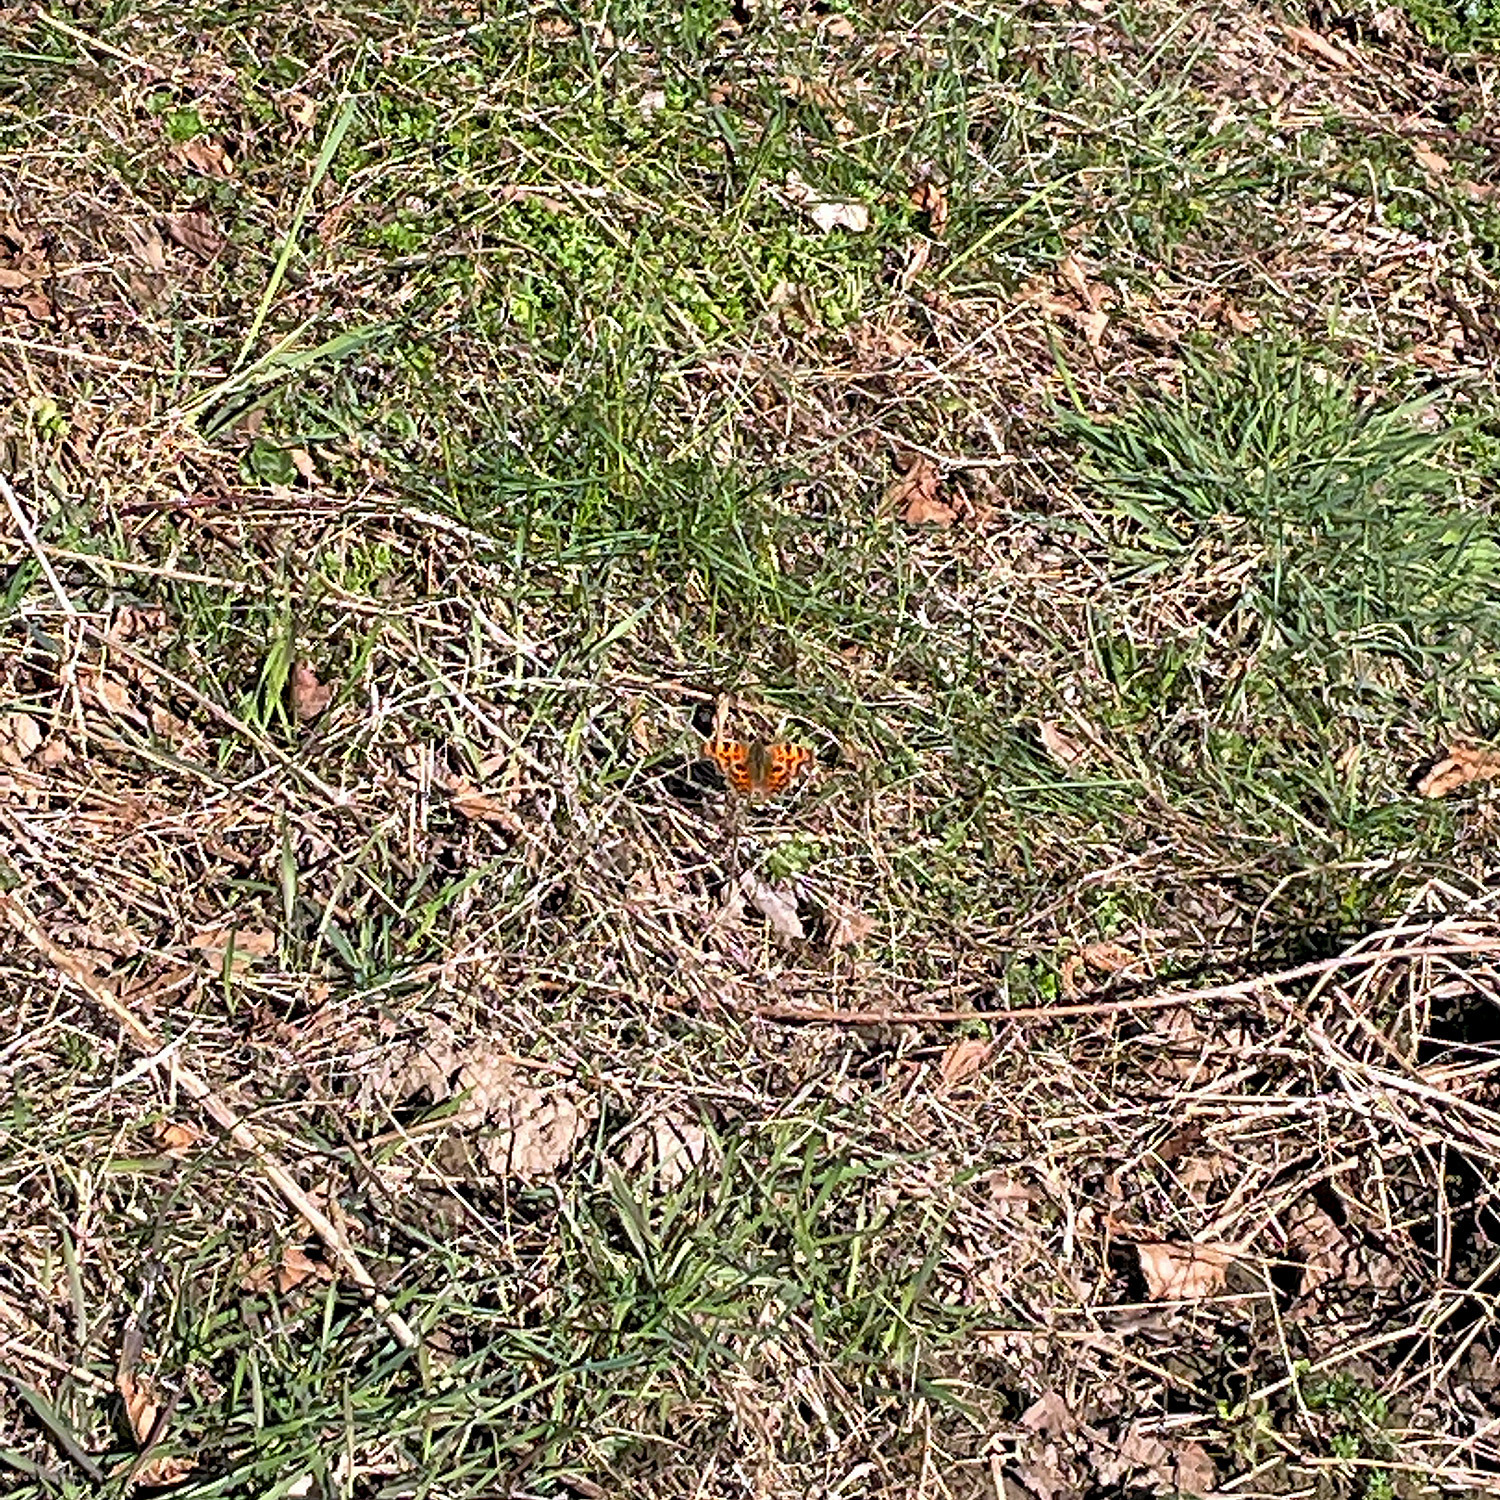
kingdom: Animalia
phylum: Arthropoda
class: Insecta
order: Lepidoptera
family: Nymphalidae
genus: Polygonia
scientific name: Polygonia c-album
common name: Comma
